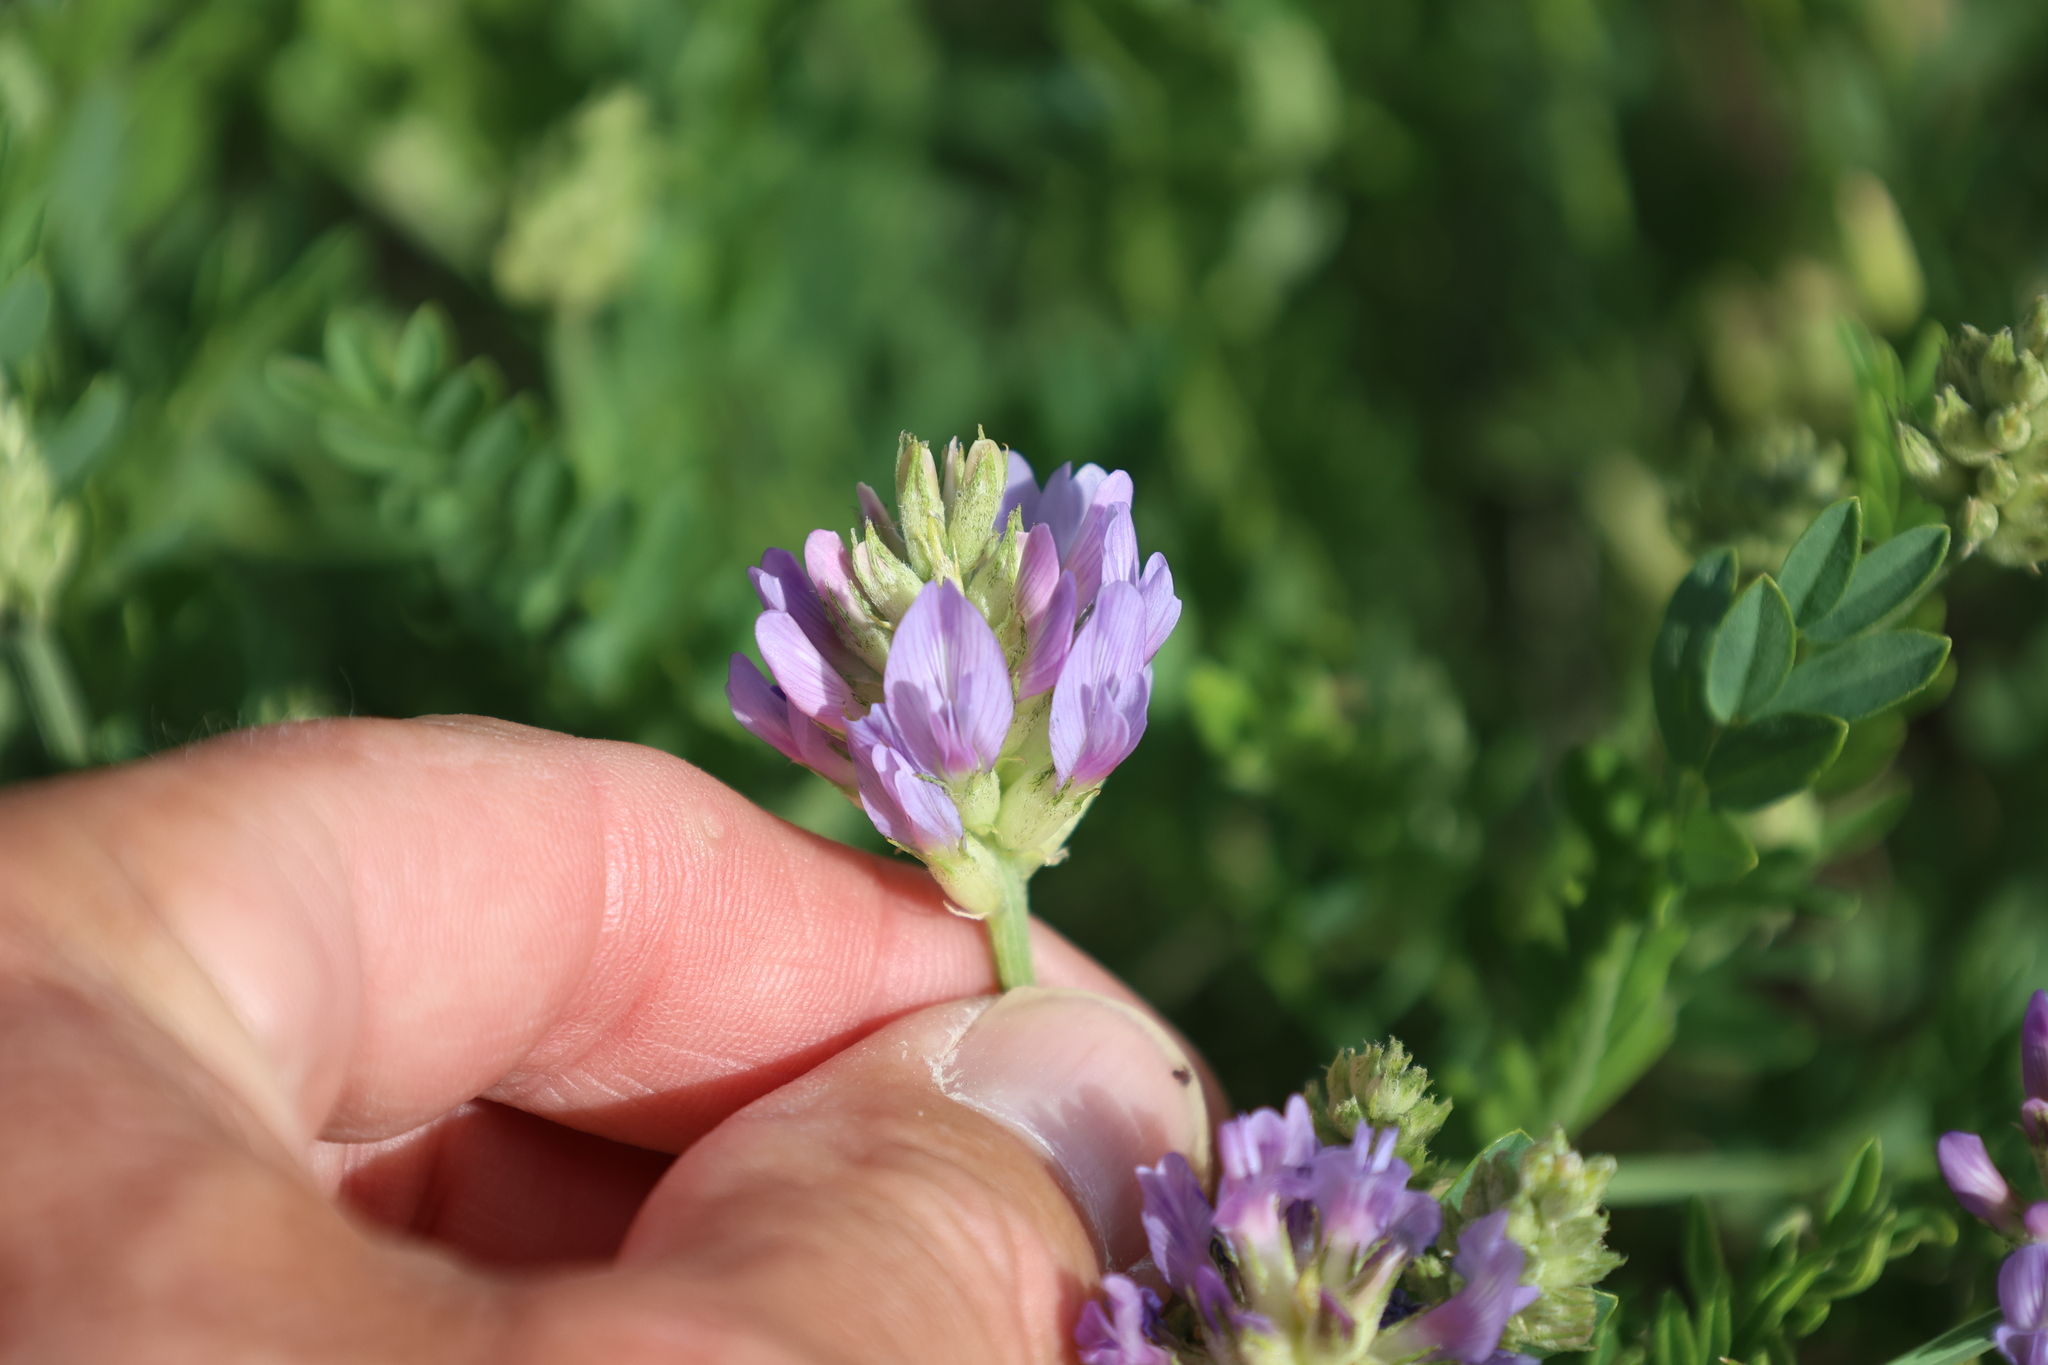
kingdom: Plantae
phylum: Tracheophyta
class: Magnoliopsida
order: Fabales
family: Fabaceae
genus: Astragalus
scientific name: Astragalus laxmannii
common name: Laxmann's milk-vetch
